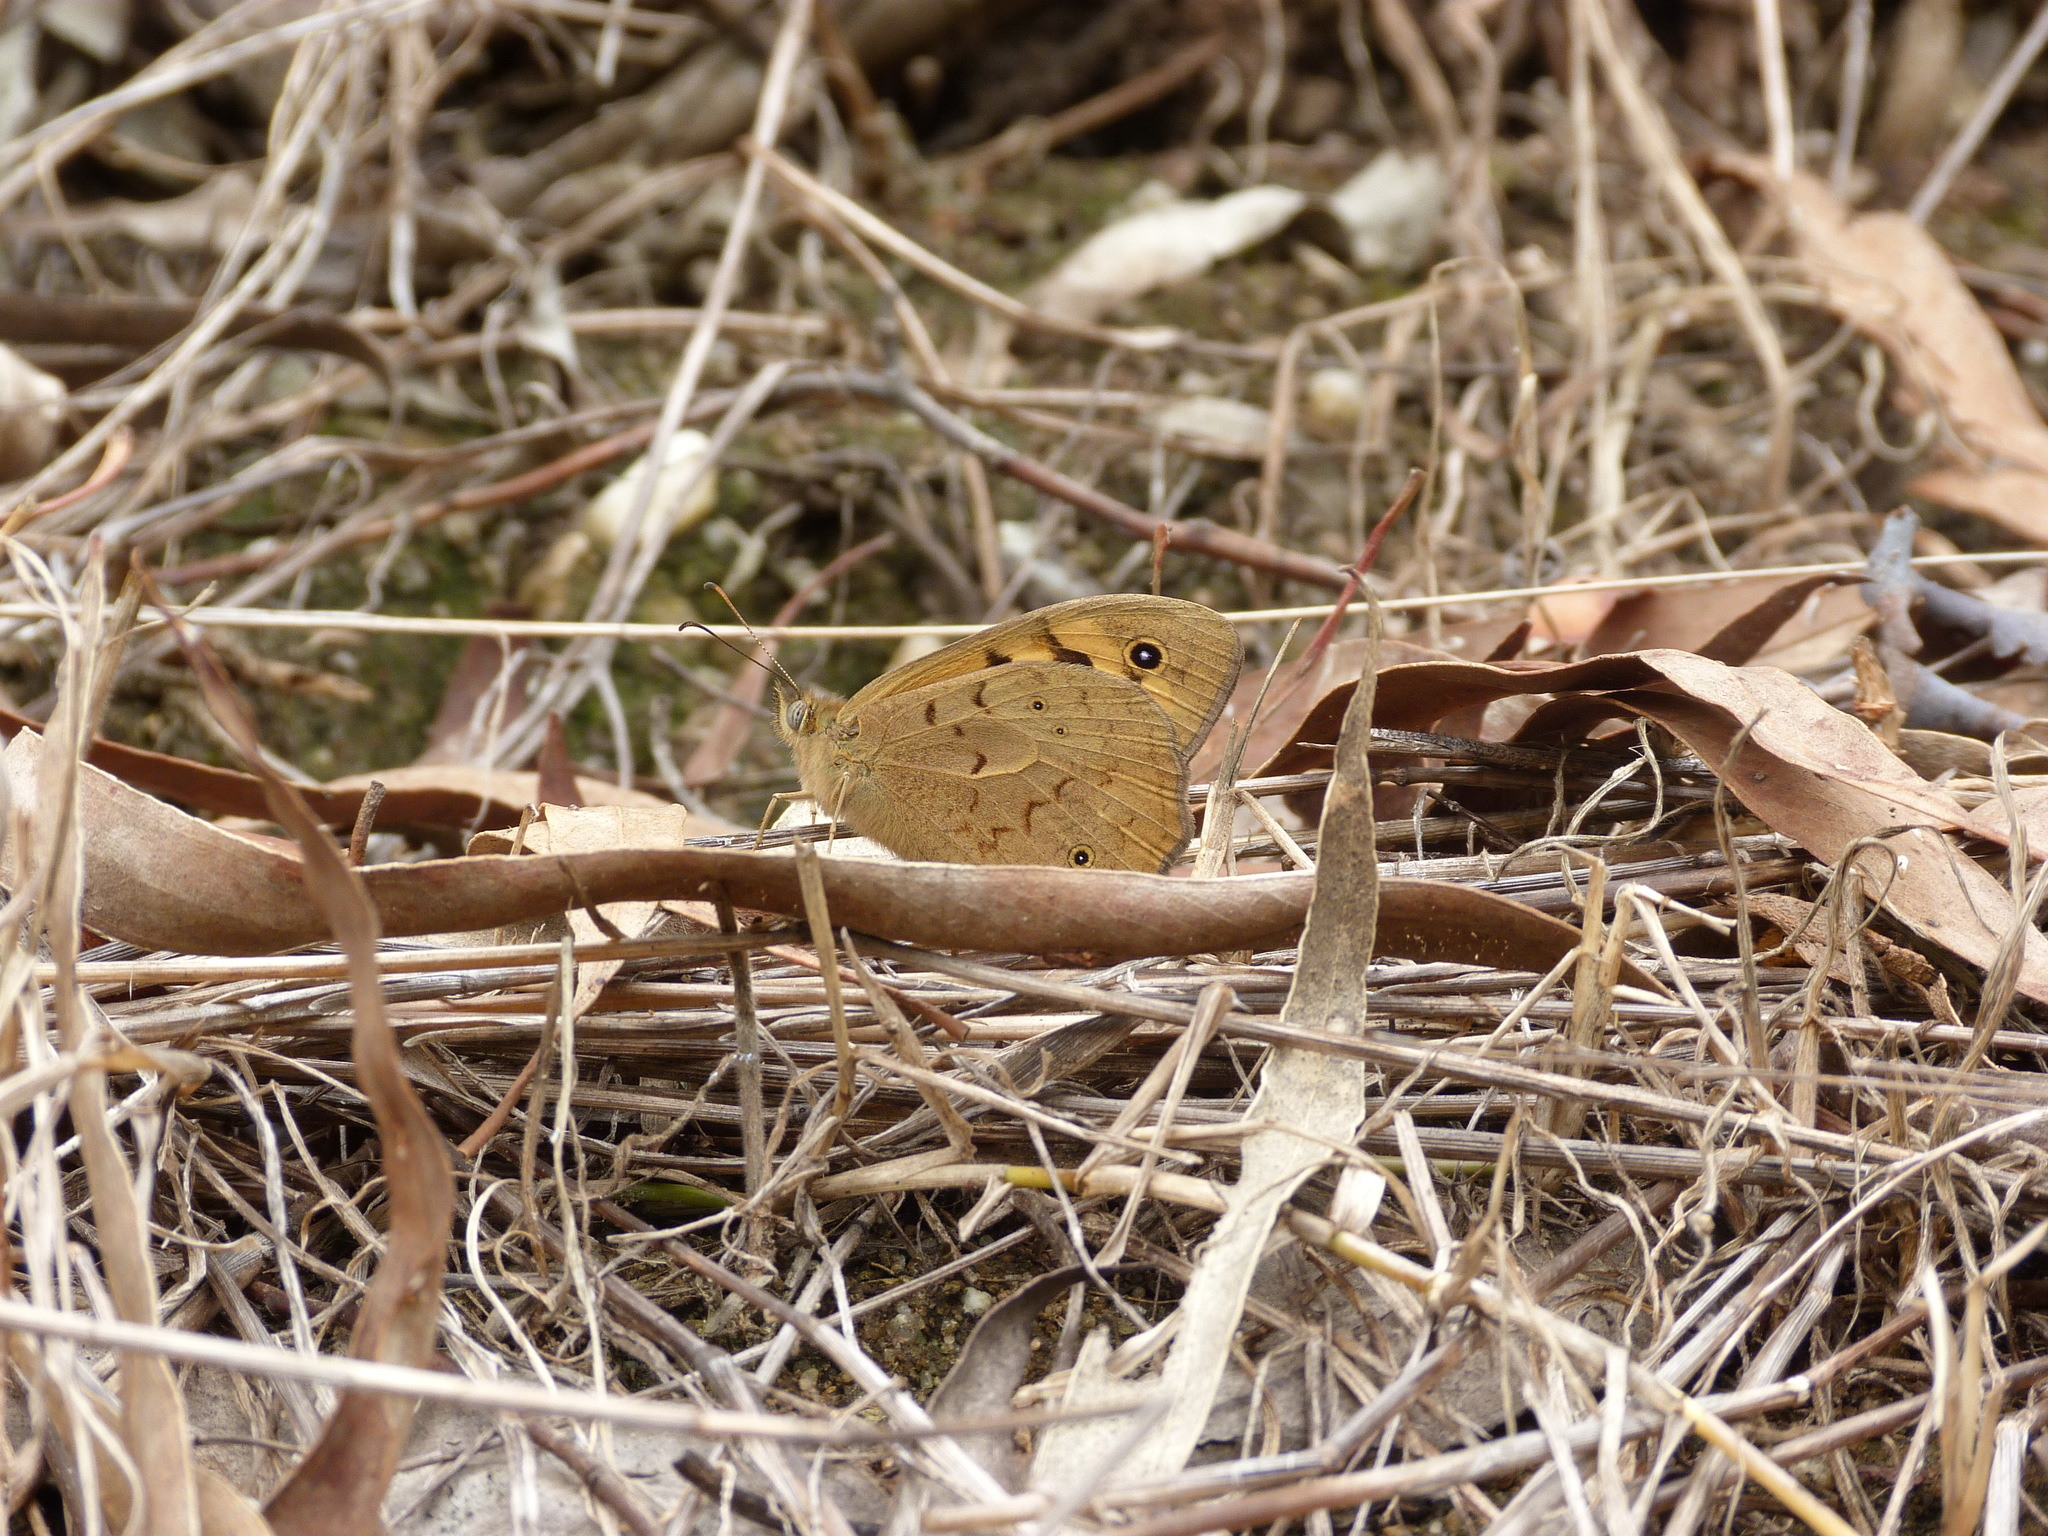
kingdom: Animalia
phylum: Arthropoda
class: Insecta
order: Lepidoptera
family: Nymphalidae
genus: Heteronympha
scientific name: Heteronympha merope
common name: Common brown
